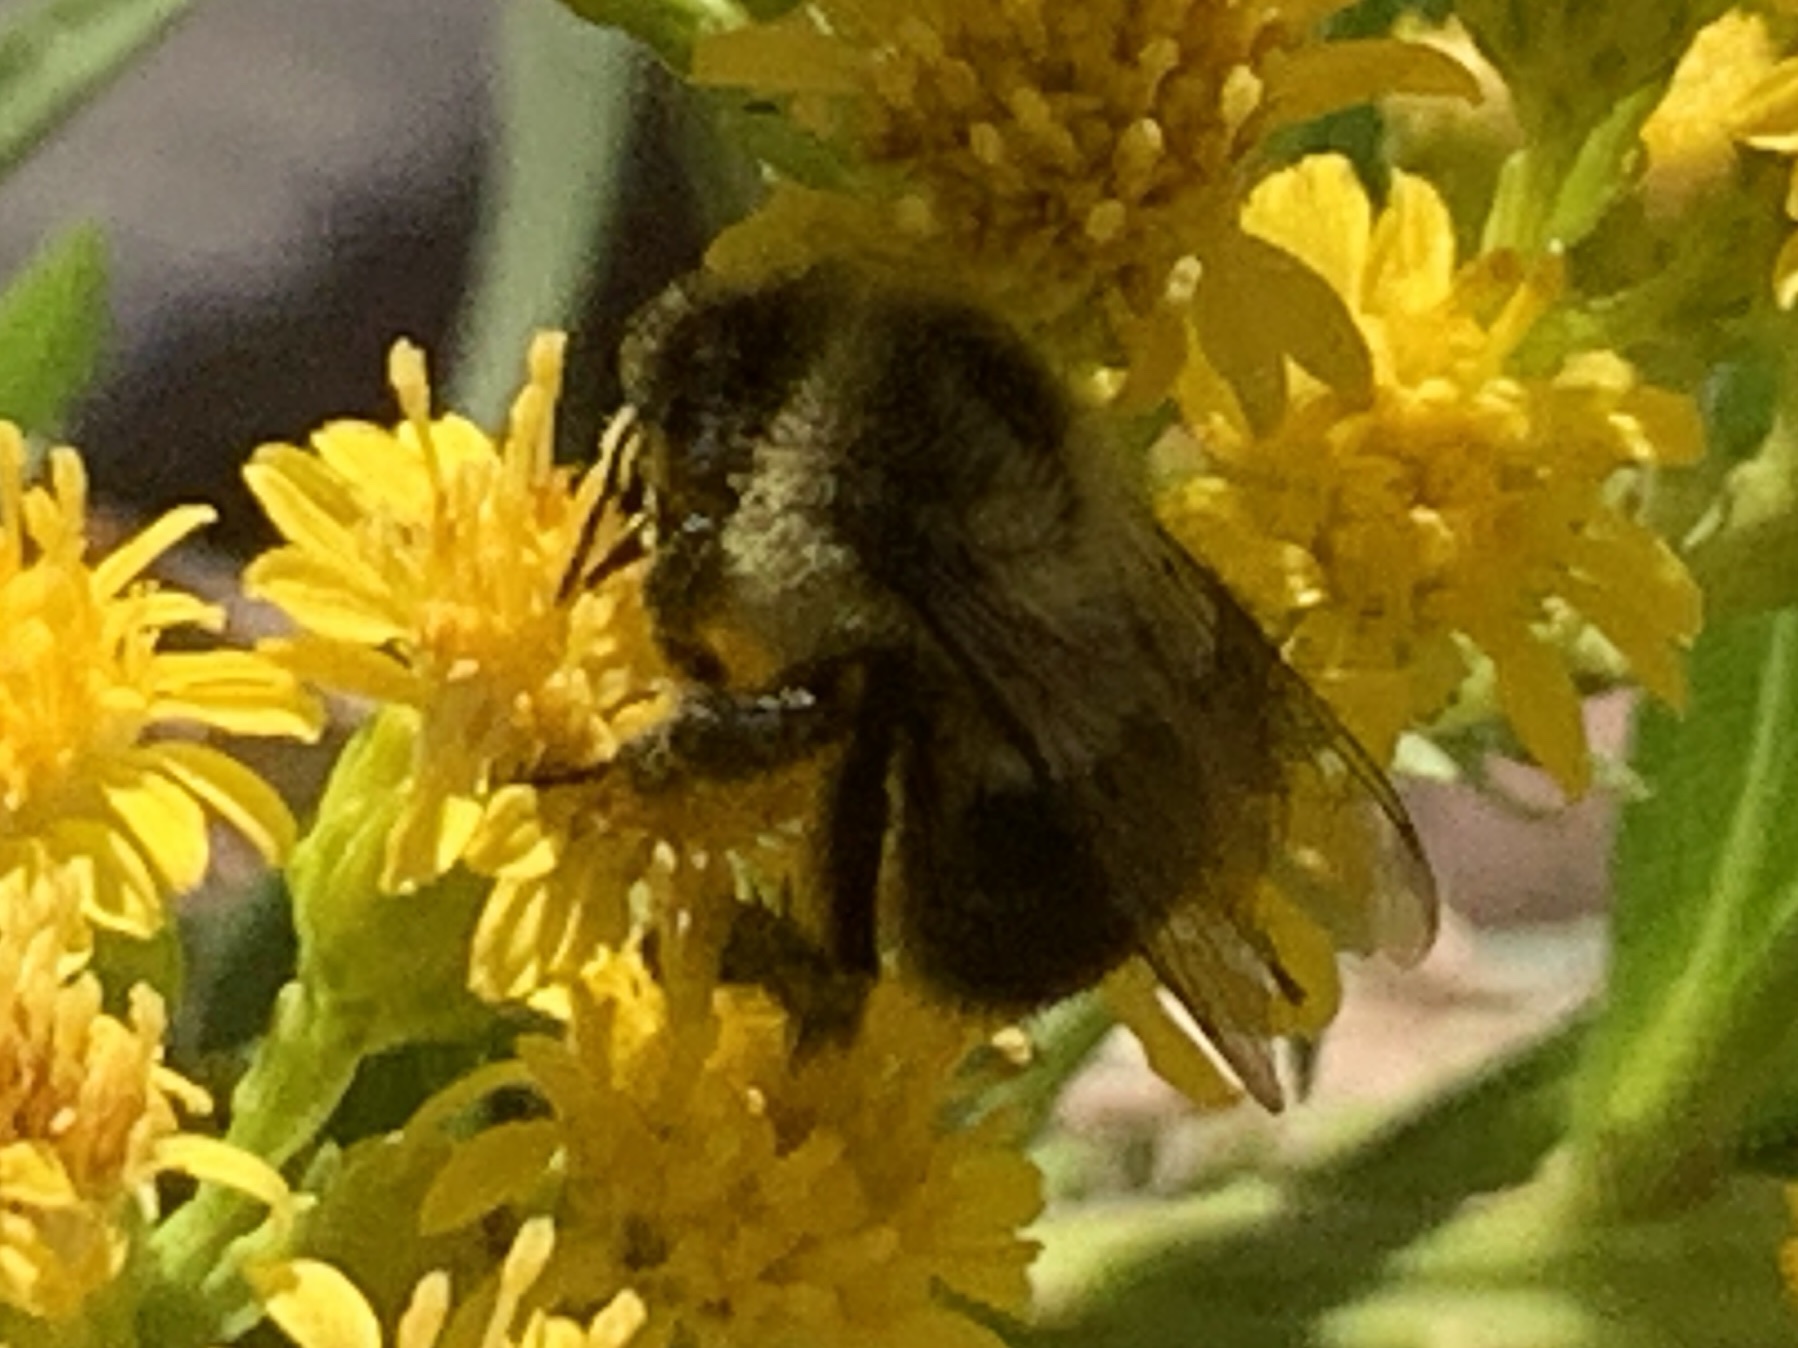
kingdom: Animalia
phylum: Arthropoda
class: Insecta
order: Hymenoptera
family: Apidae
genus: Bombus
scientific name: Bombus impatiens
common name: Common eastern bumble bee
